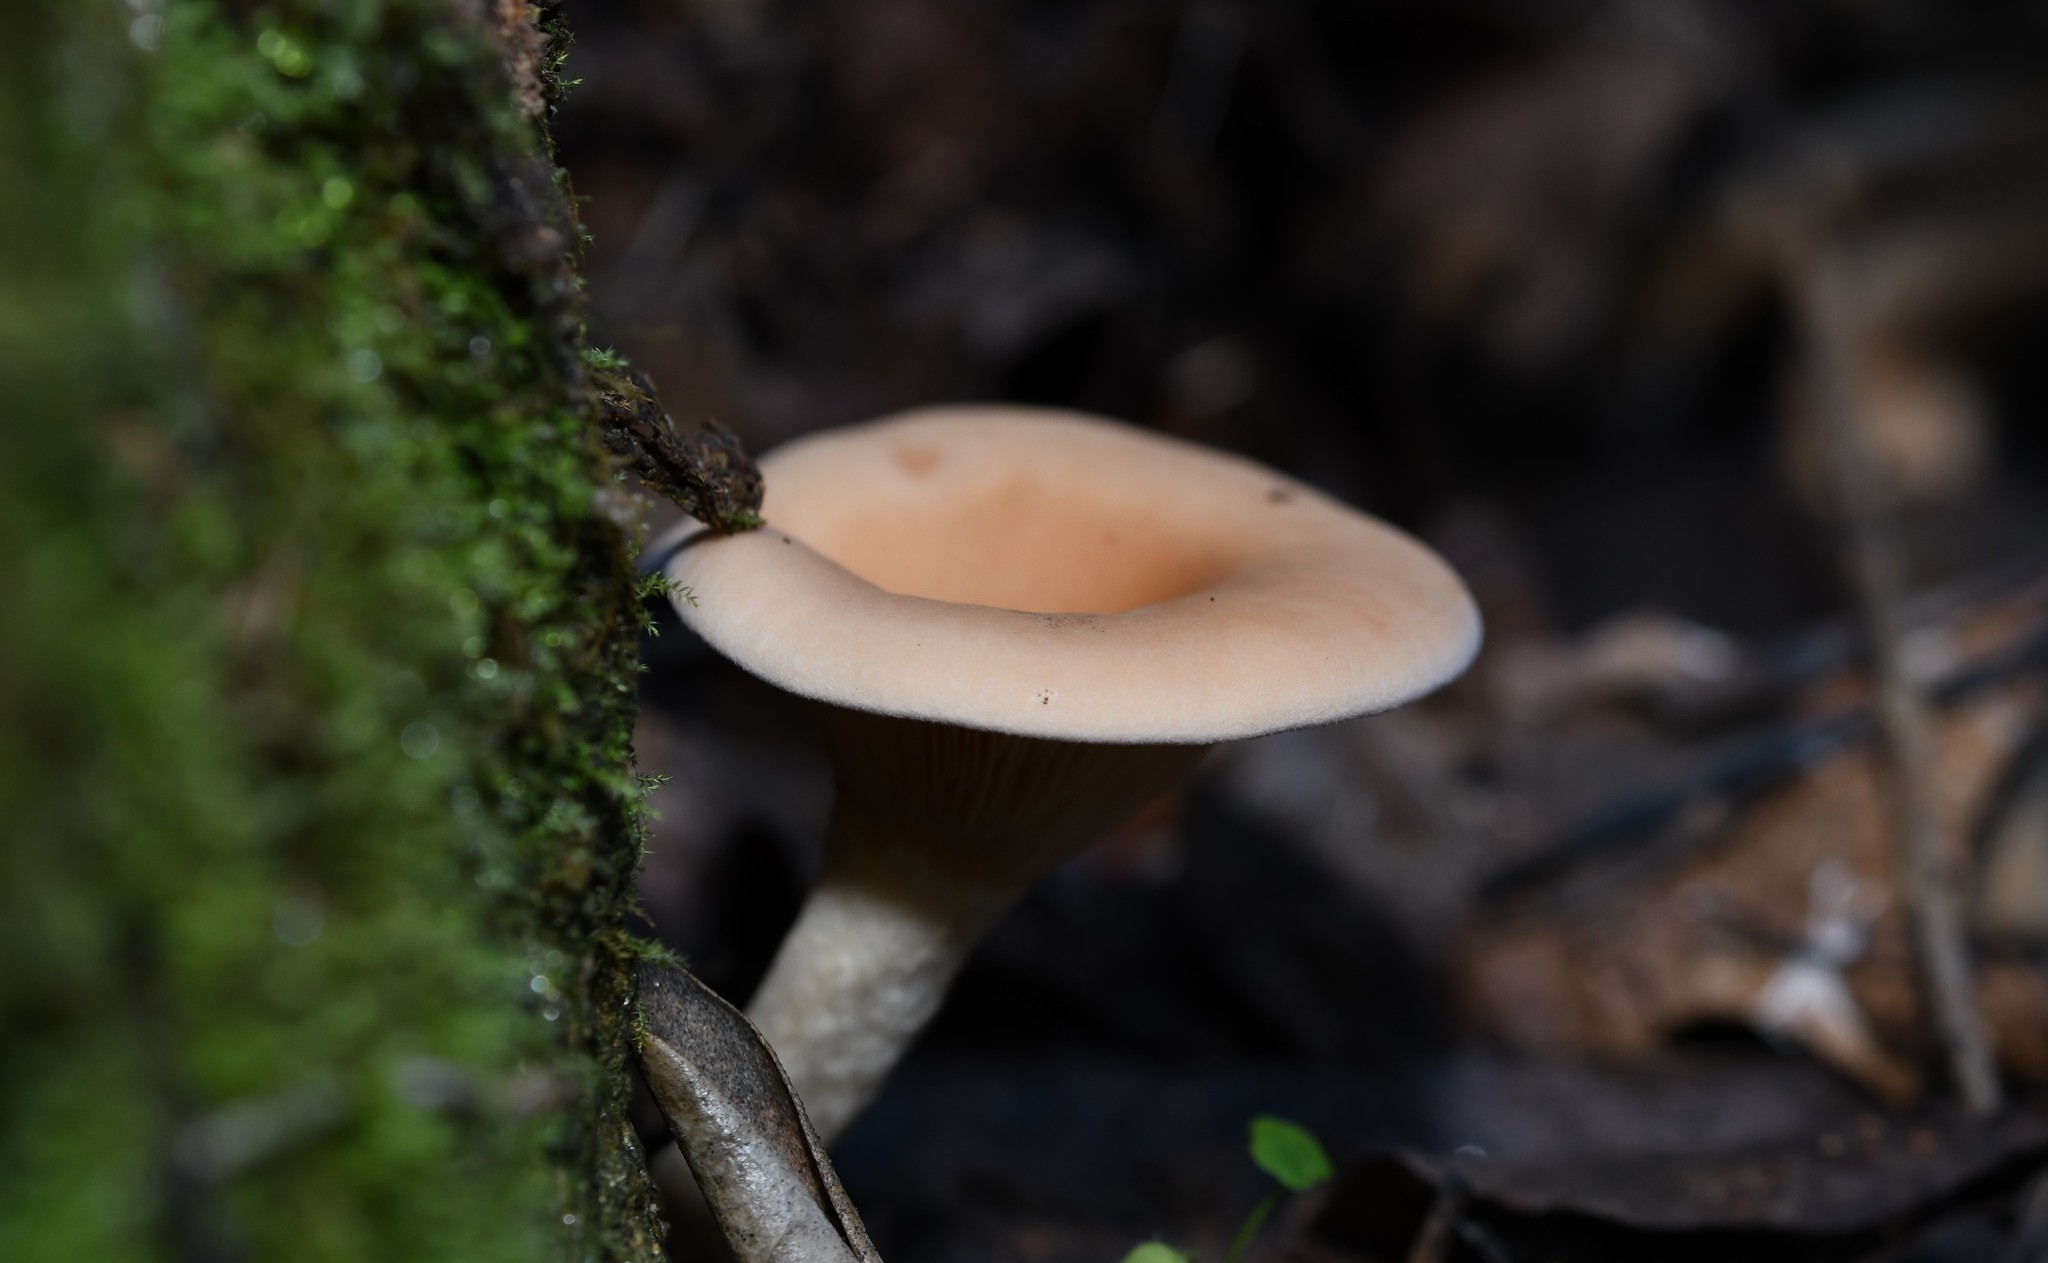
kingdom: Fungi
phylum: Basidiomycota
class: Agaricomycetes
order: Agaricales
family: Tricholomataceae
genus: Infundibulicybe
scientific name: Infundibulicybe gibba
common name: Common funnel
